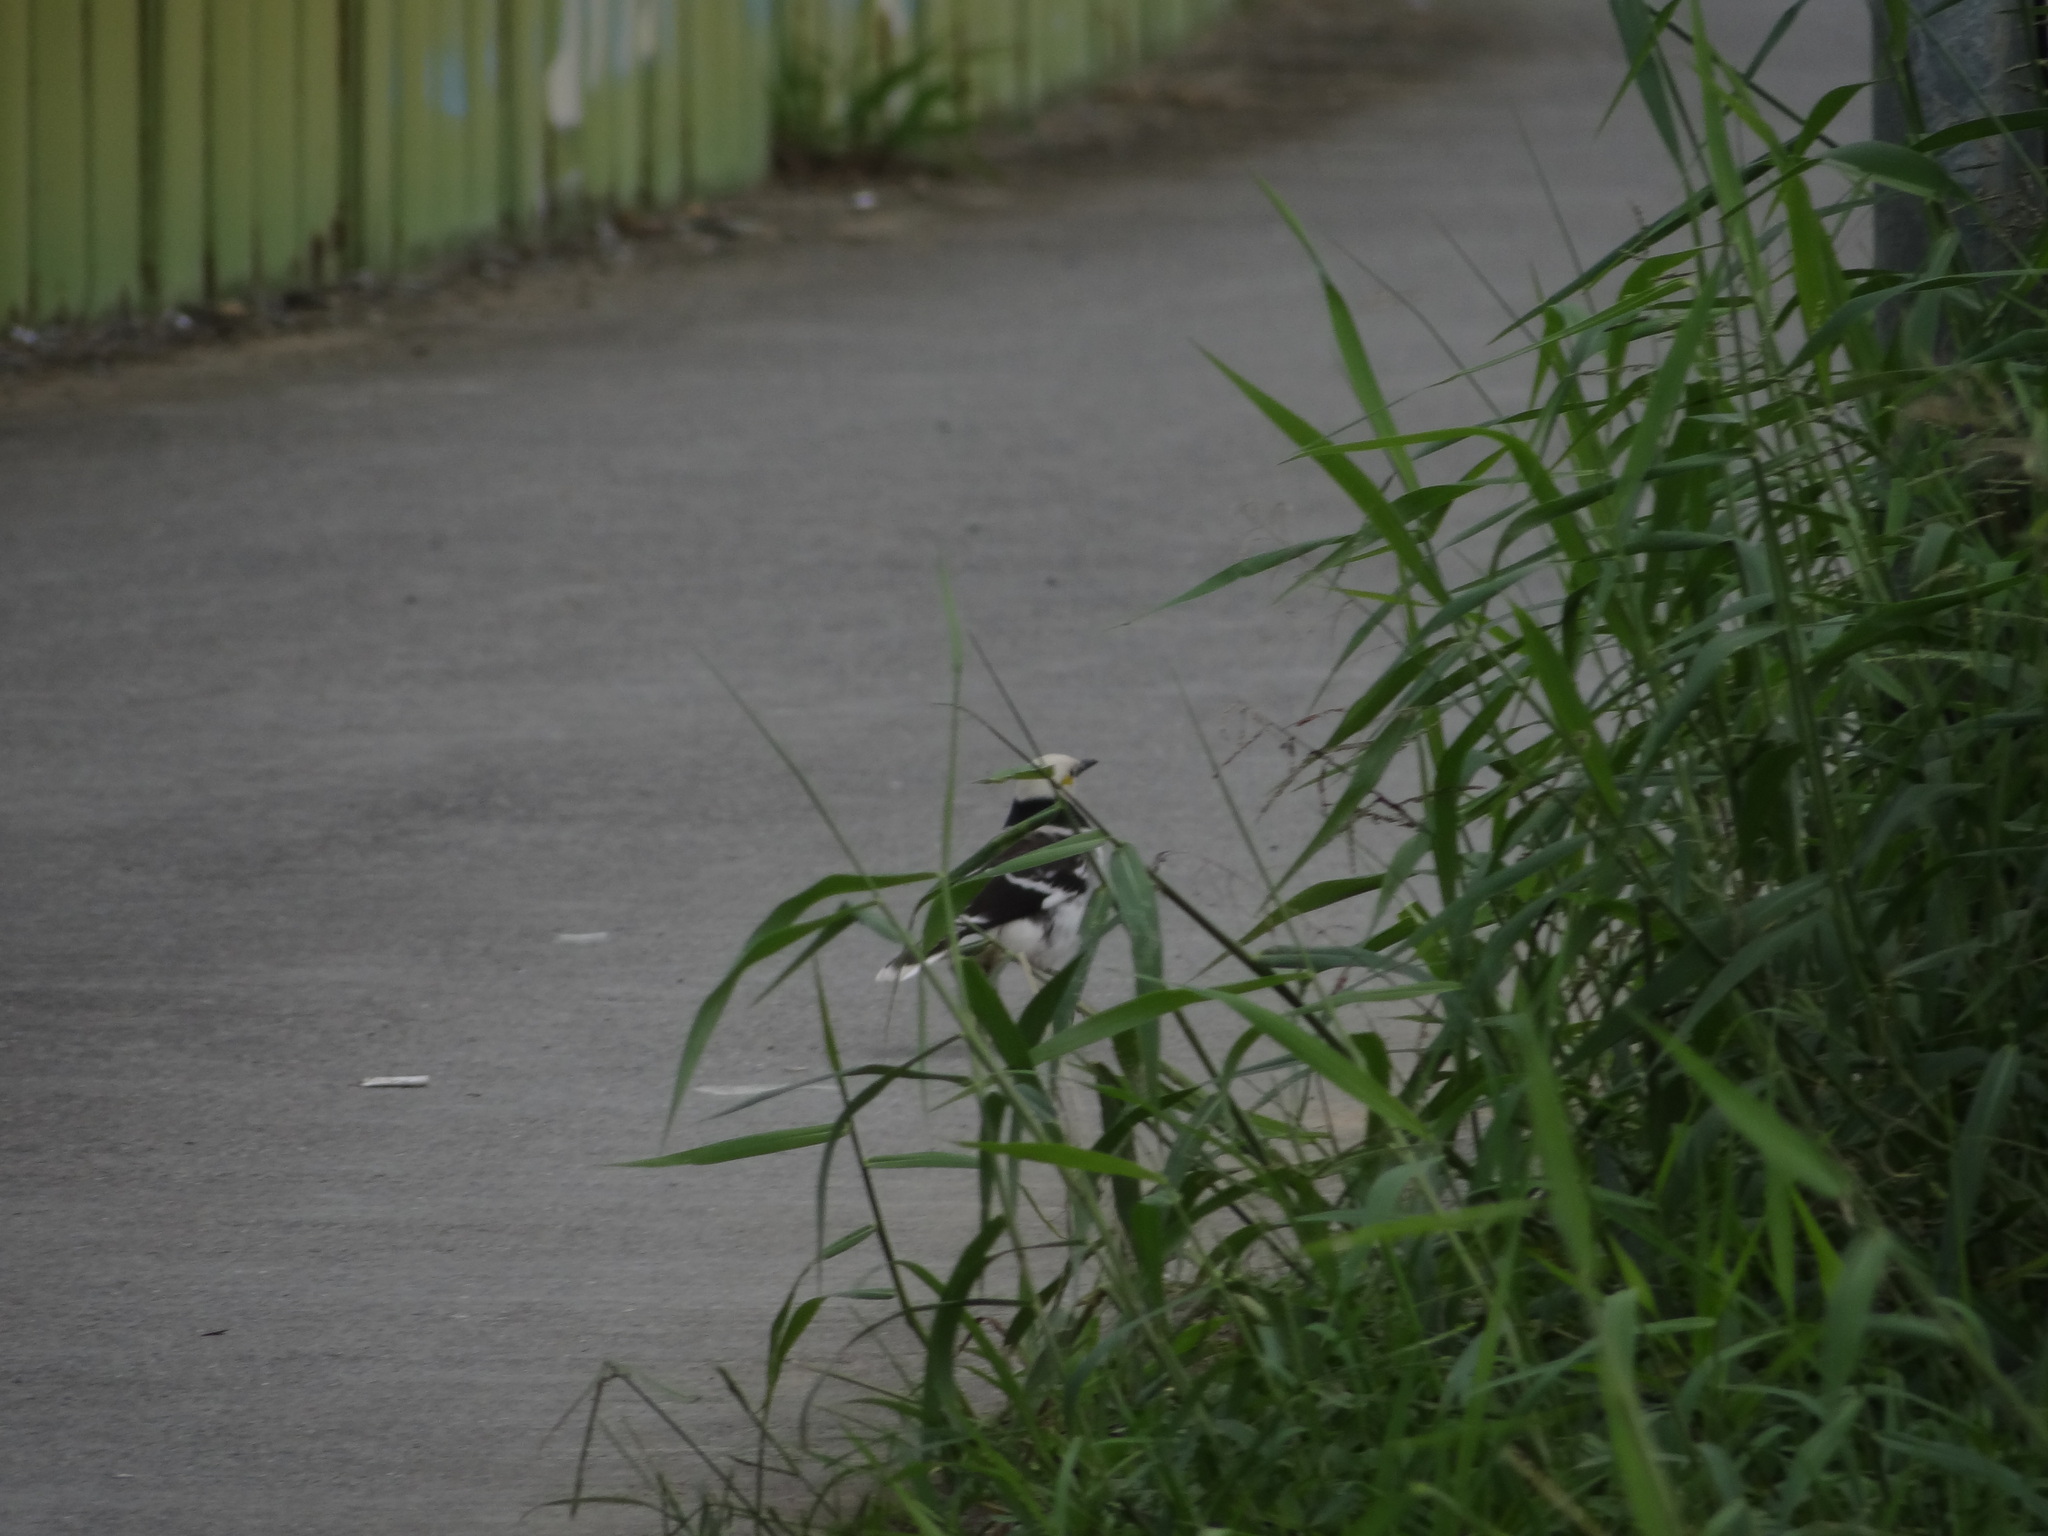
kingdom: Animalia
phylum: Chordata
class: Aves
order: Passeriformes
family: Sturnidae
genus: Gracupica
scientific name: Gracupica nigricollis
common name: Black-collared starling
